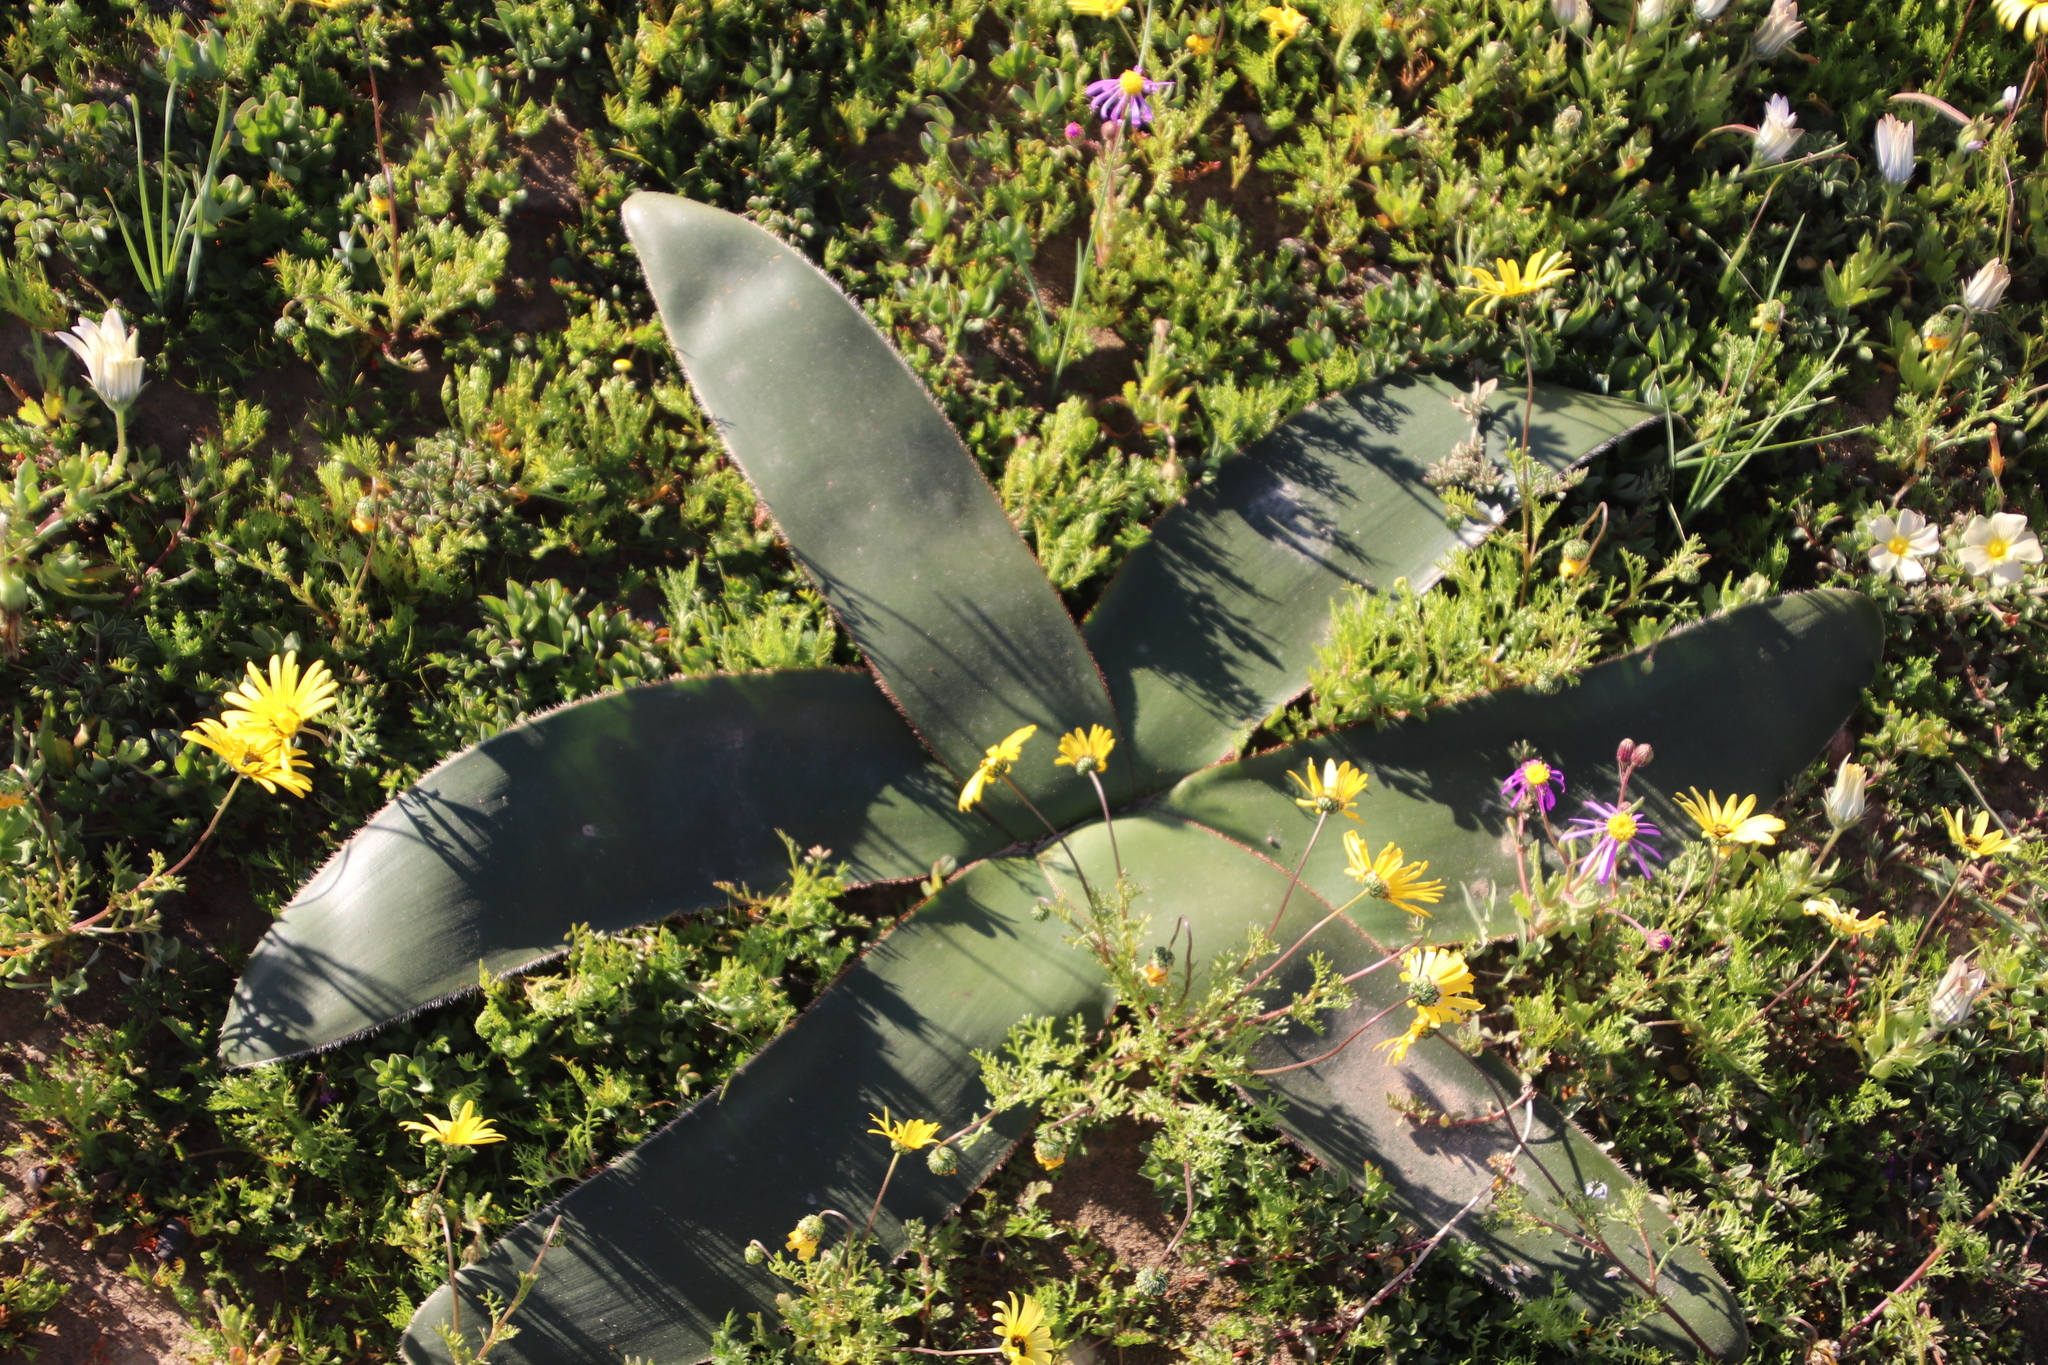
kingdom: Plantae
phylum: Tracheophyta
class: Liliopsida
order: Asparagales
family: Amaryllidaceae
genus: Crossyne
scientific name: Crossyne flava
